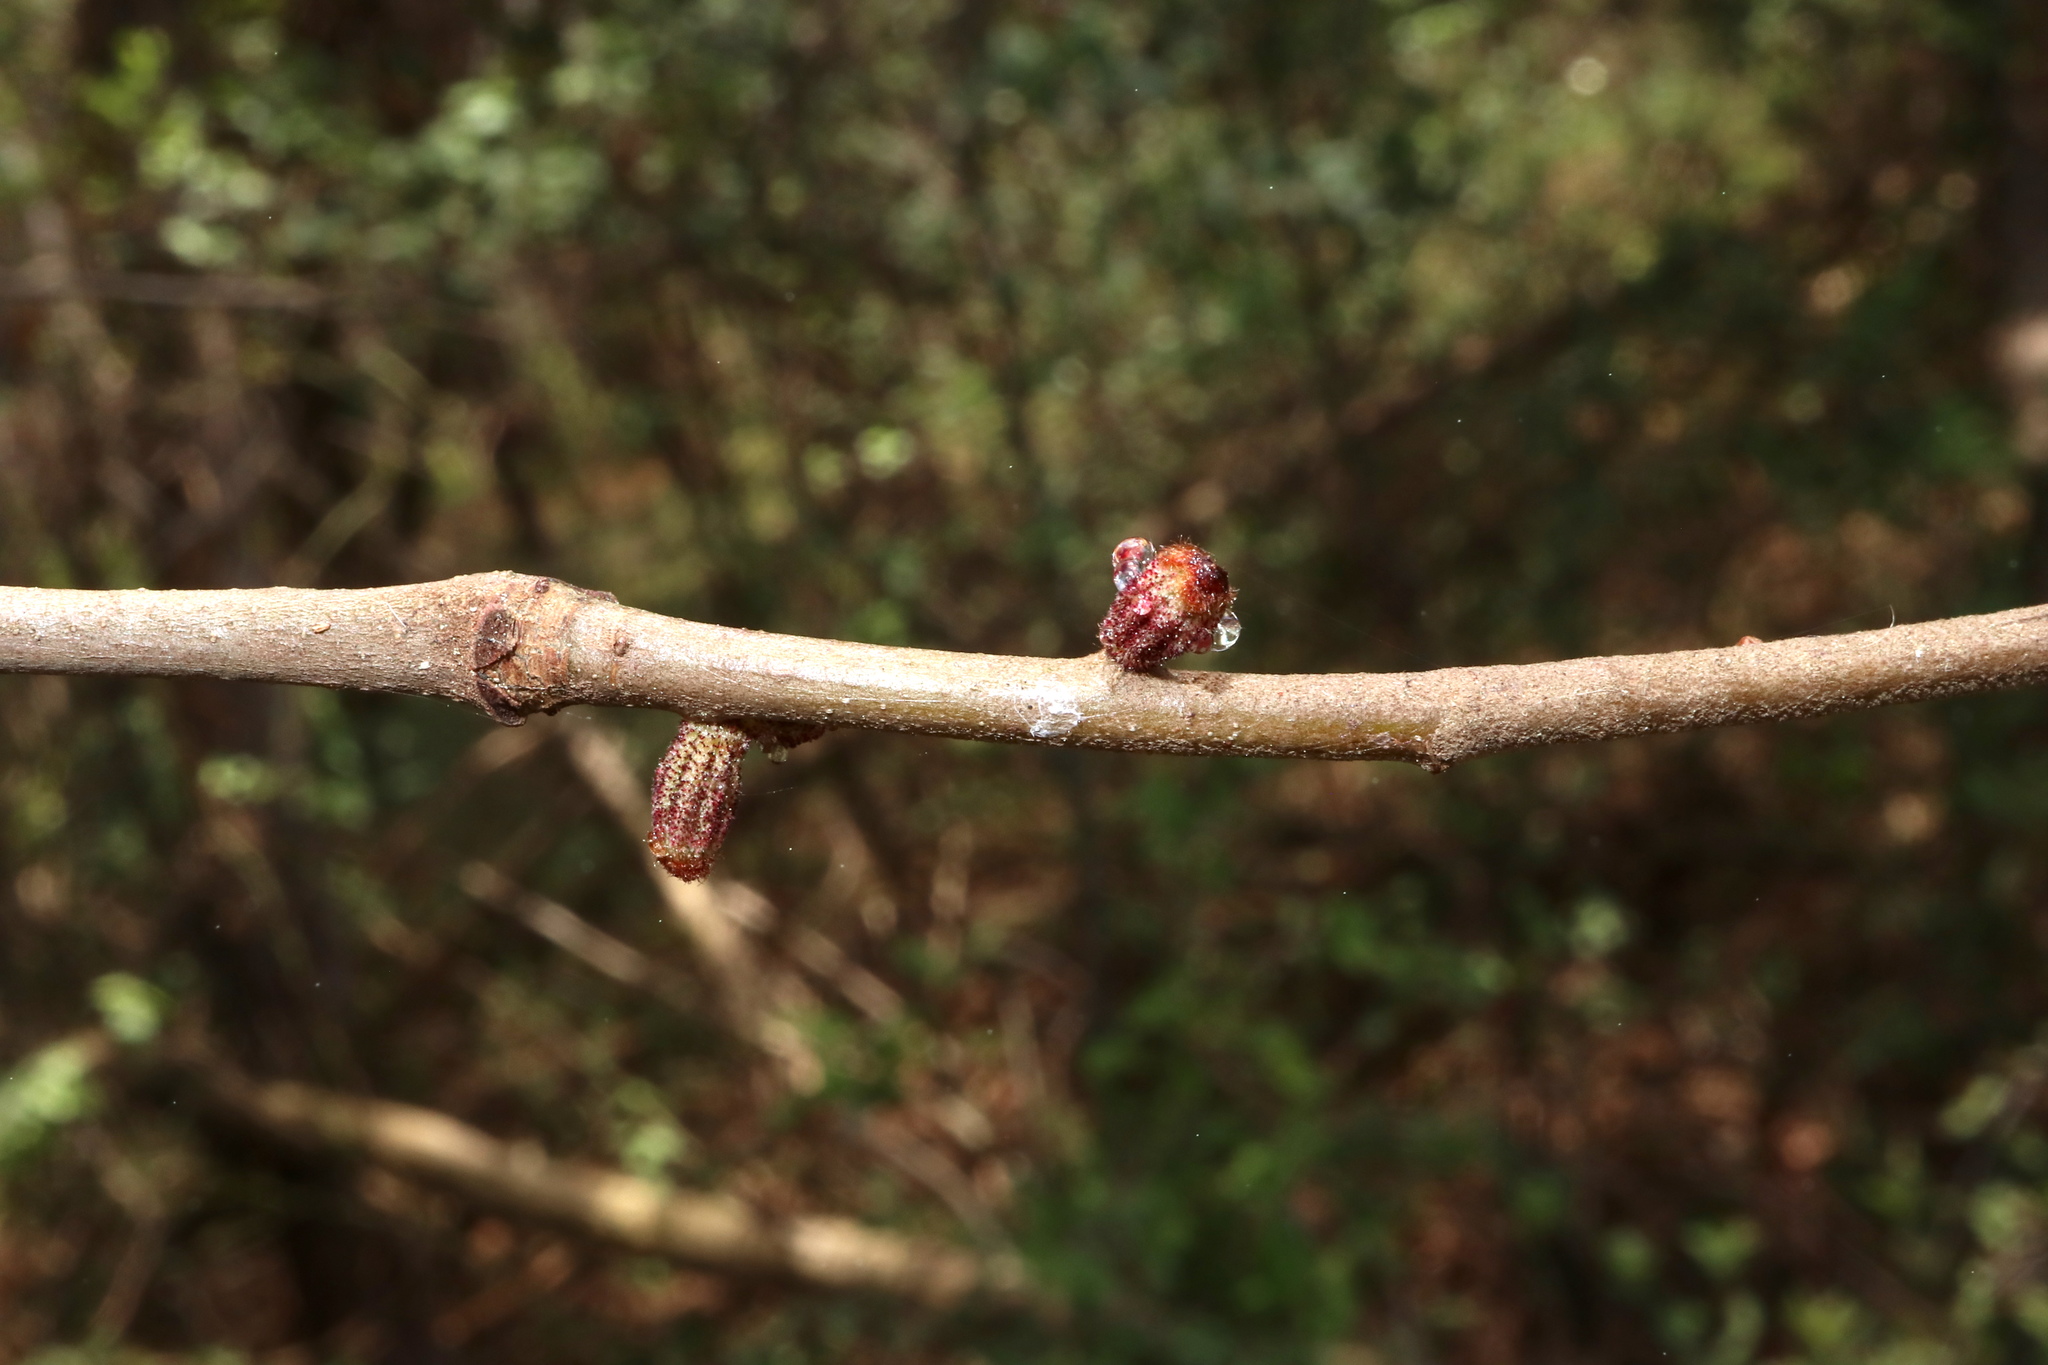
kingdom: Animalia
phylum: Arthropoda
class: Insecta
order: Hymenoptera
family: Cynipidae
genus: Callirhytis
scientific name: Callirhytis
